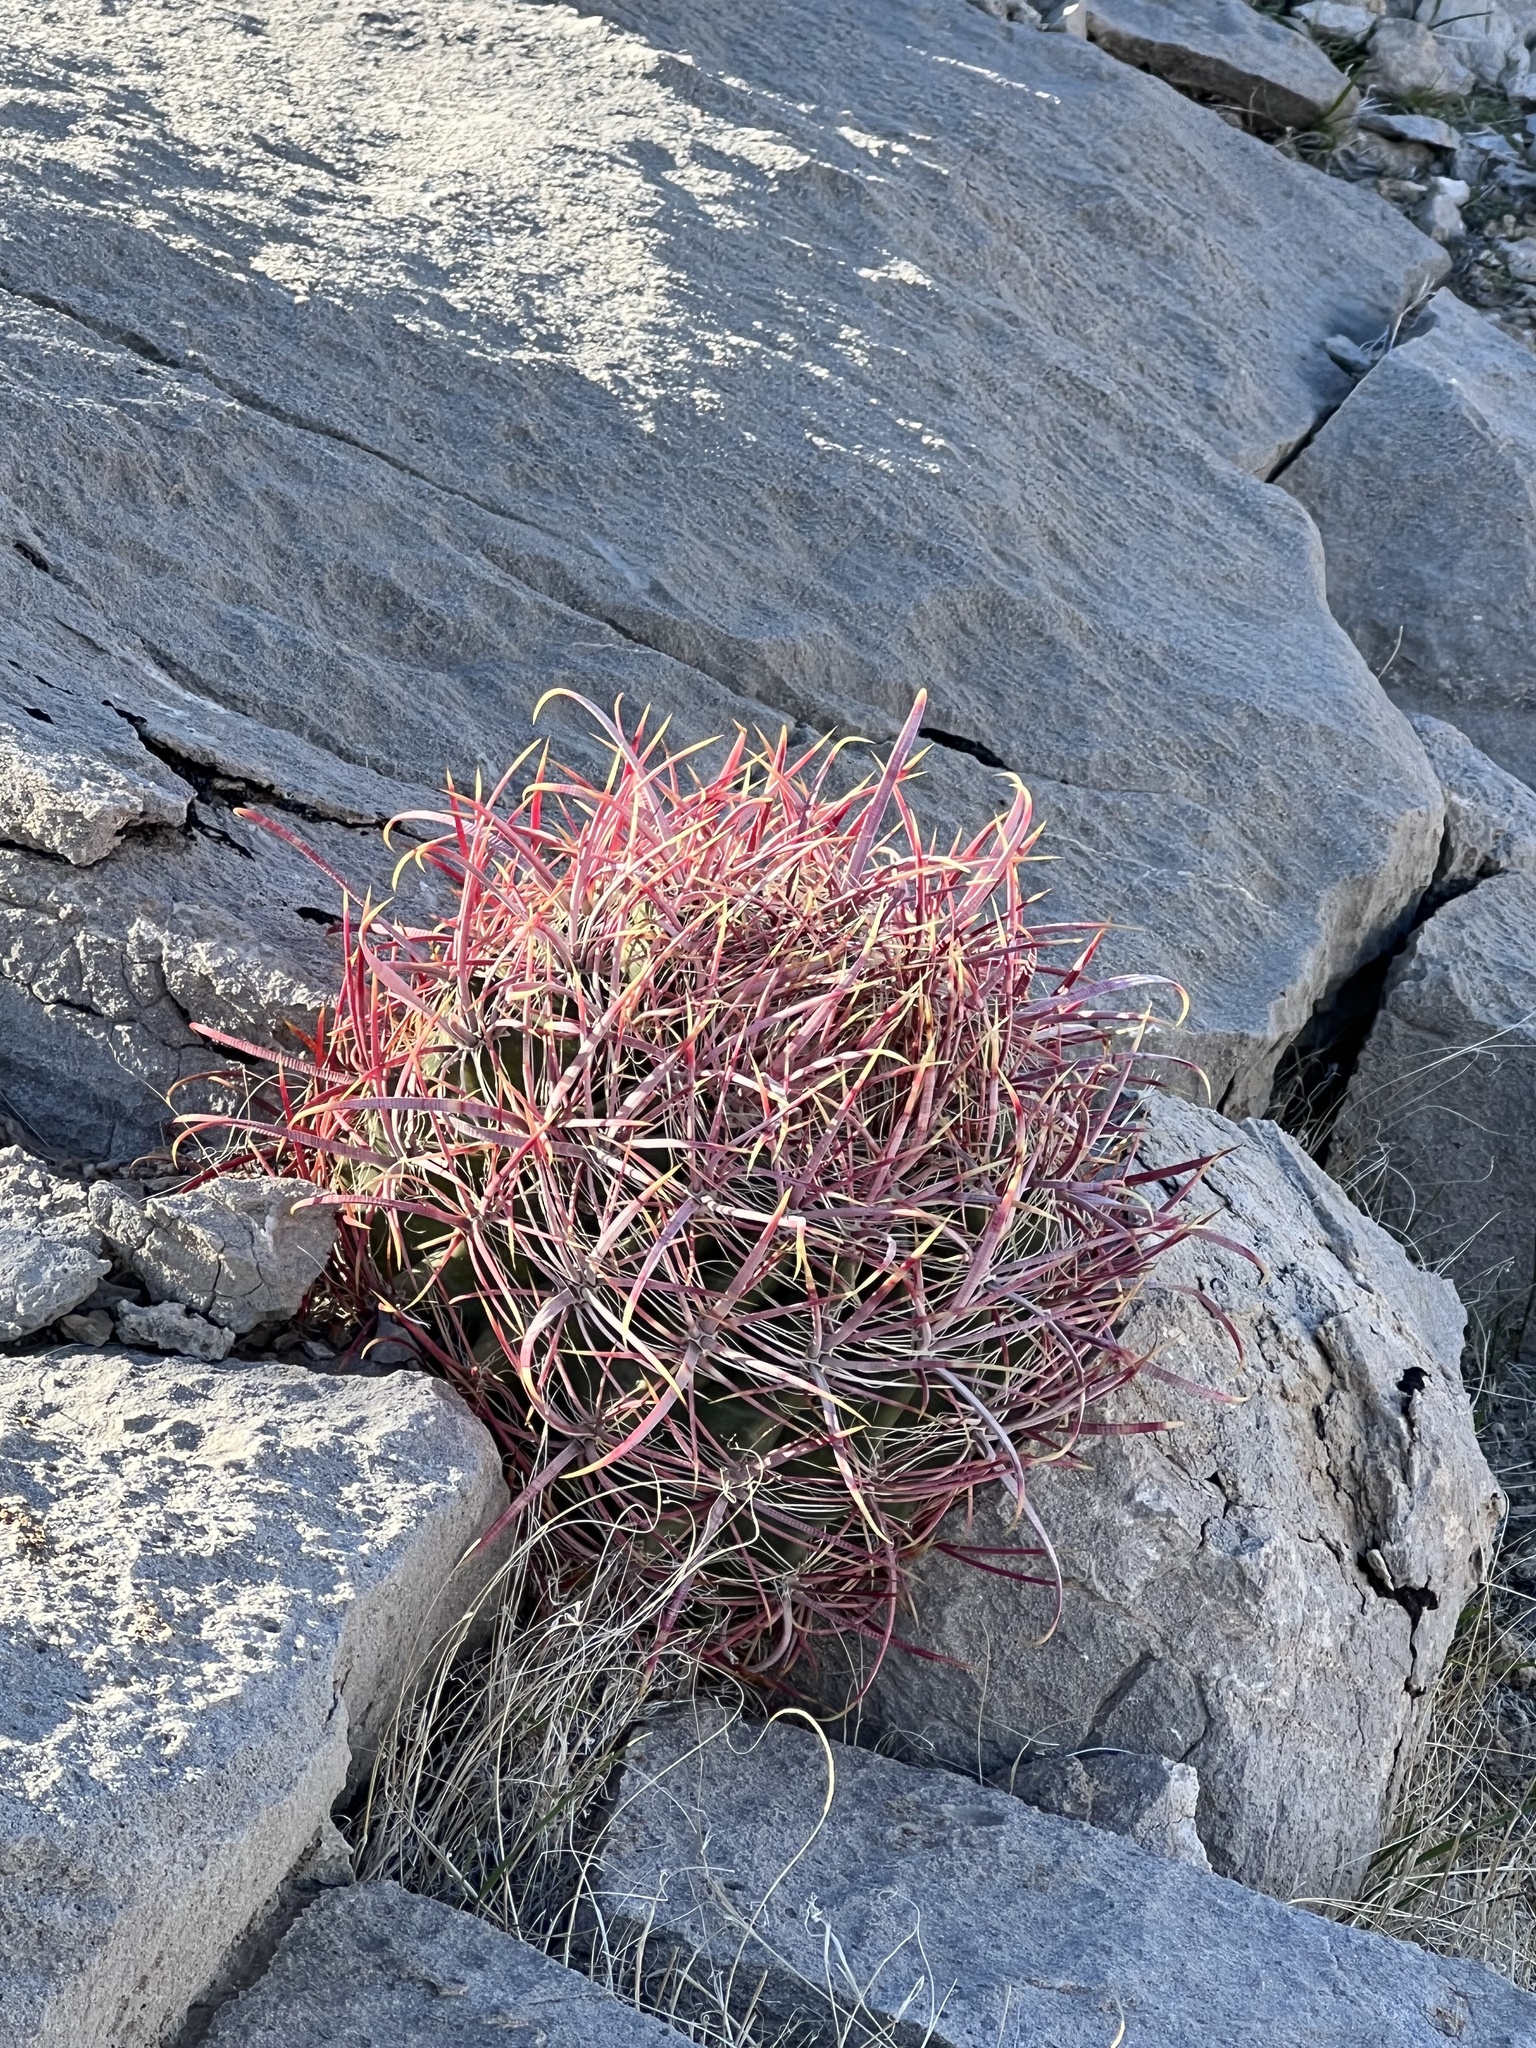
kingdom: Plantae
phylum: Tracheophyta
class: Magnoliopsida
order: Caryophyllales
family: Cactaceae
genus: Ferocactus
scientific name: Ferocactus cylindraceus
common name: California barrel cactus
